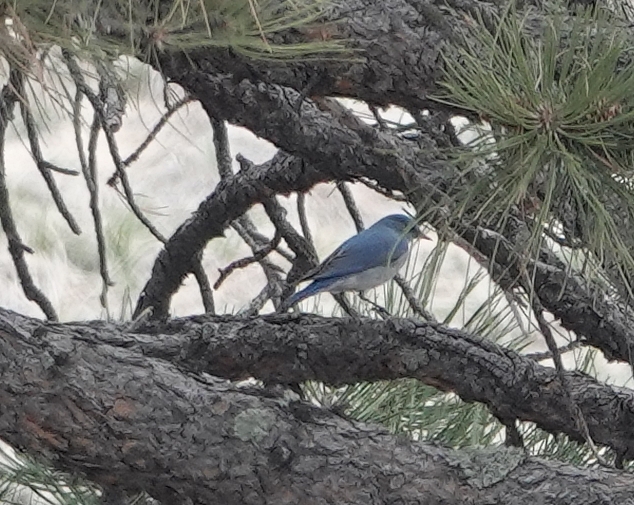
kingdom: Animalia
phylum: Chordata
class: Aves
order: Passeriformes
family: Turdidae
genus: Sialia
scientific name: Sialia currucoides
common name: Mountain bluebird
